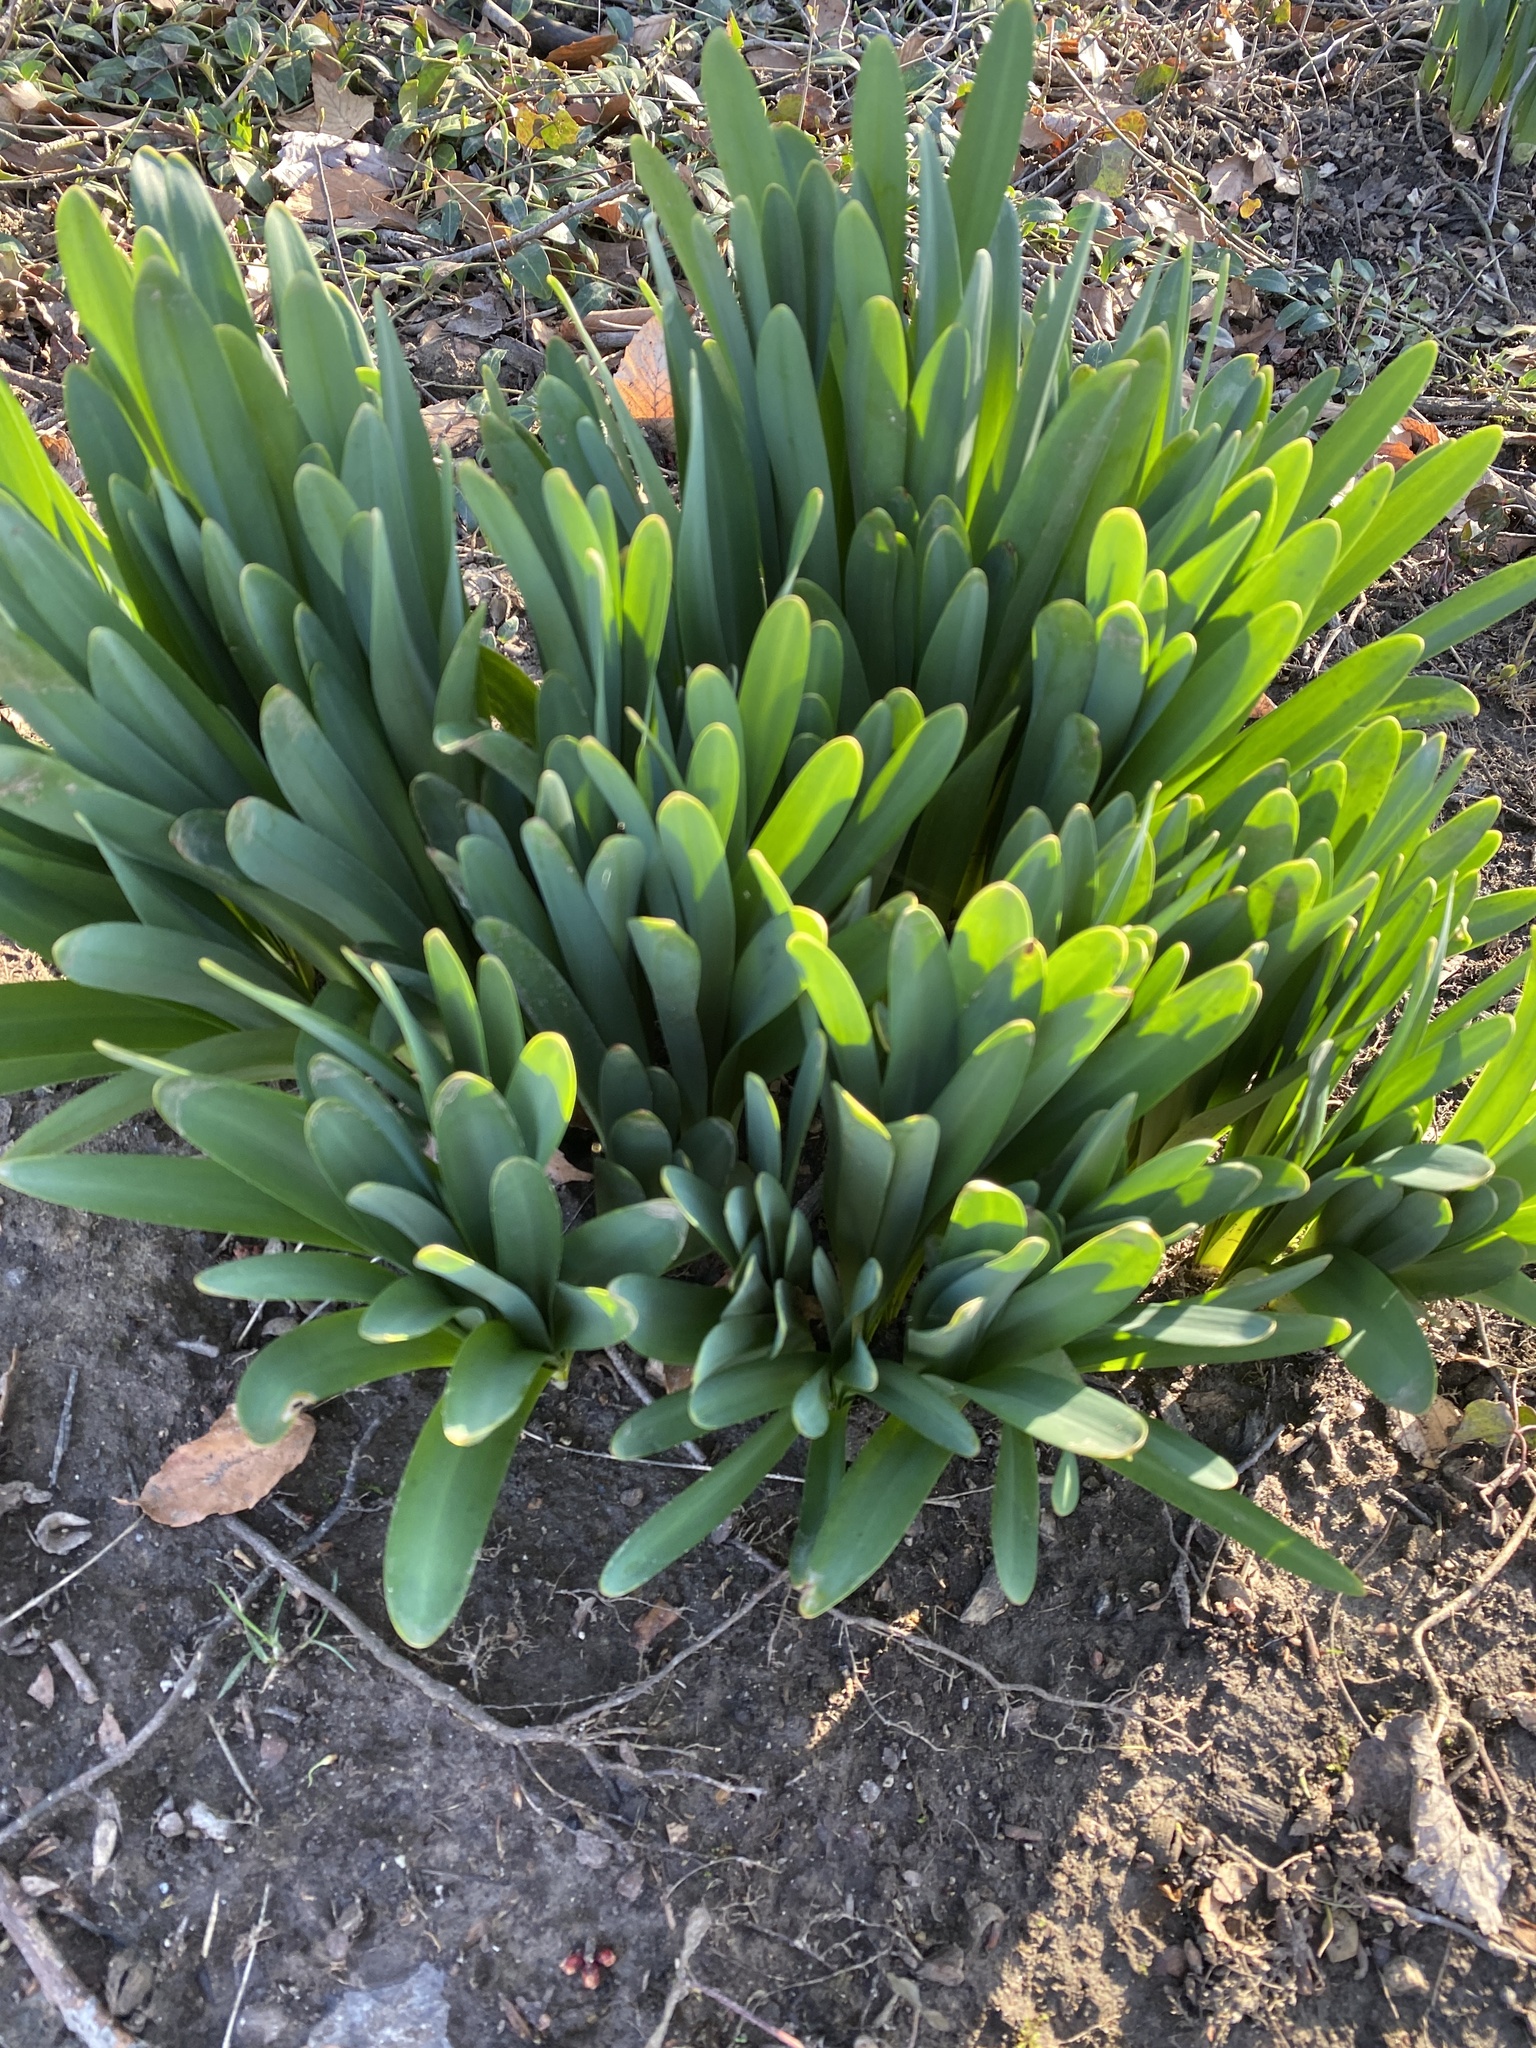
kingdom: Plantae
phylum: Tracheophyta
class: Liliopsida
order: Asparagales
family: Amaryllidaceae
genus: Lycoris
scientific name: Lycoris squamigera
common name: Magic-lily
